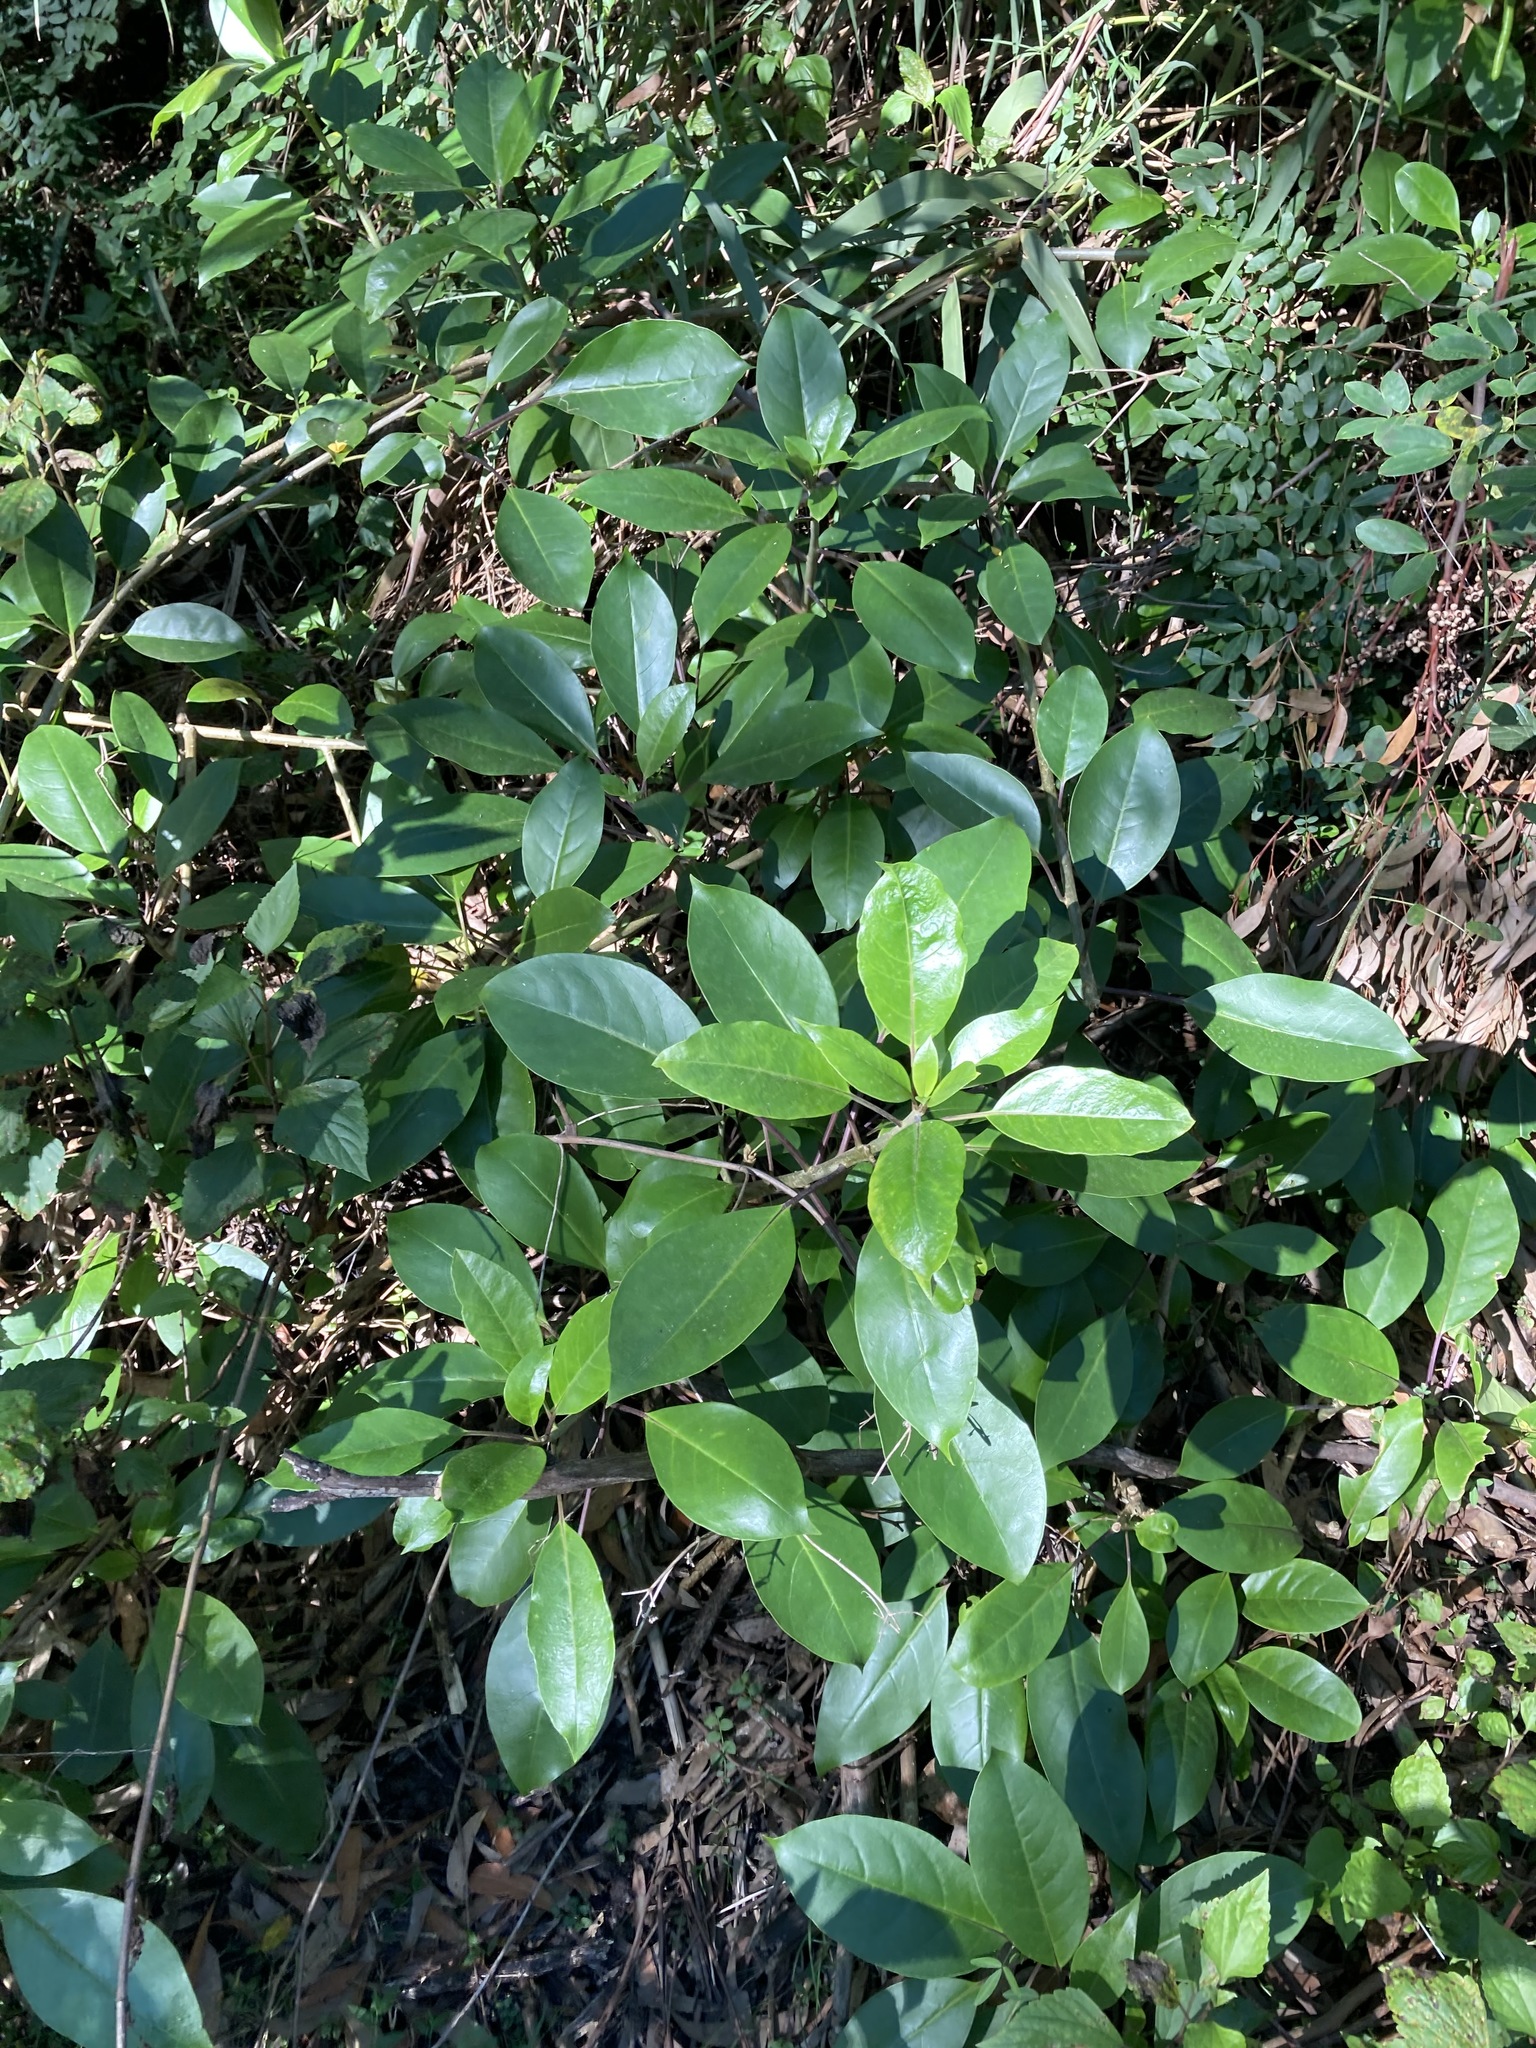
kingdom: Plantae
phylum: Tracheophyta
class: Magnoliopsida
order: Solanales
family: Solanaceae
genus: Solandra
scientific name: Solandra maxima
